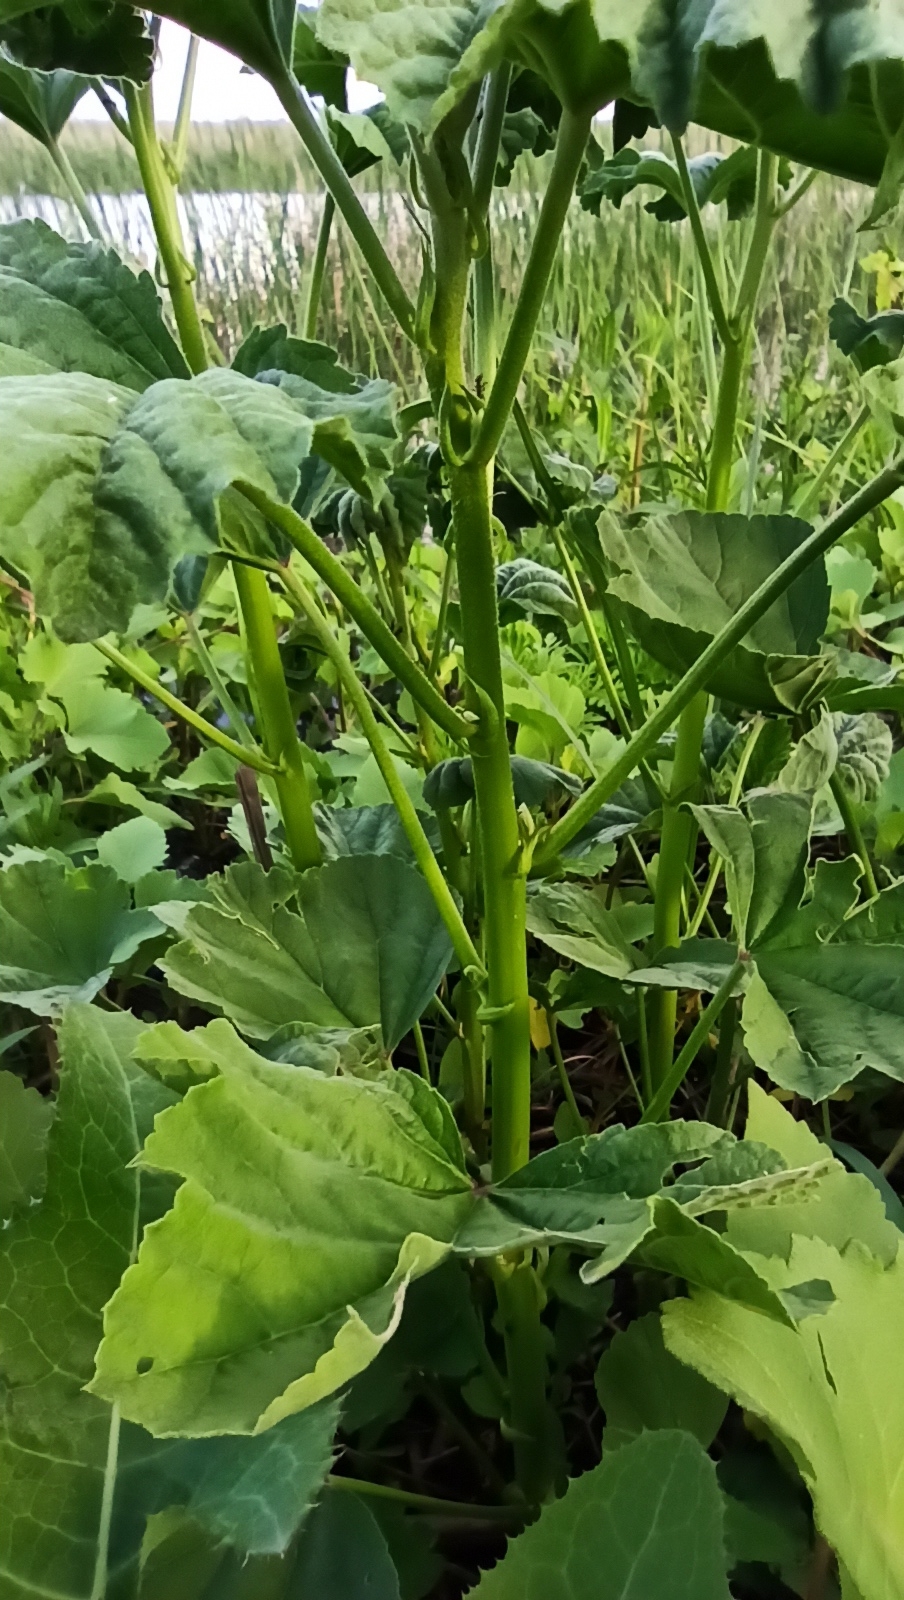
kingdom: Plantae
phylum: Tracheophyta
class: Magnoliopsida
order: Malvales
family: Malvaceae
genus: Althaea
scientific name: Althaea officinalis
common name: Marsh-mallow
